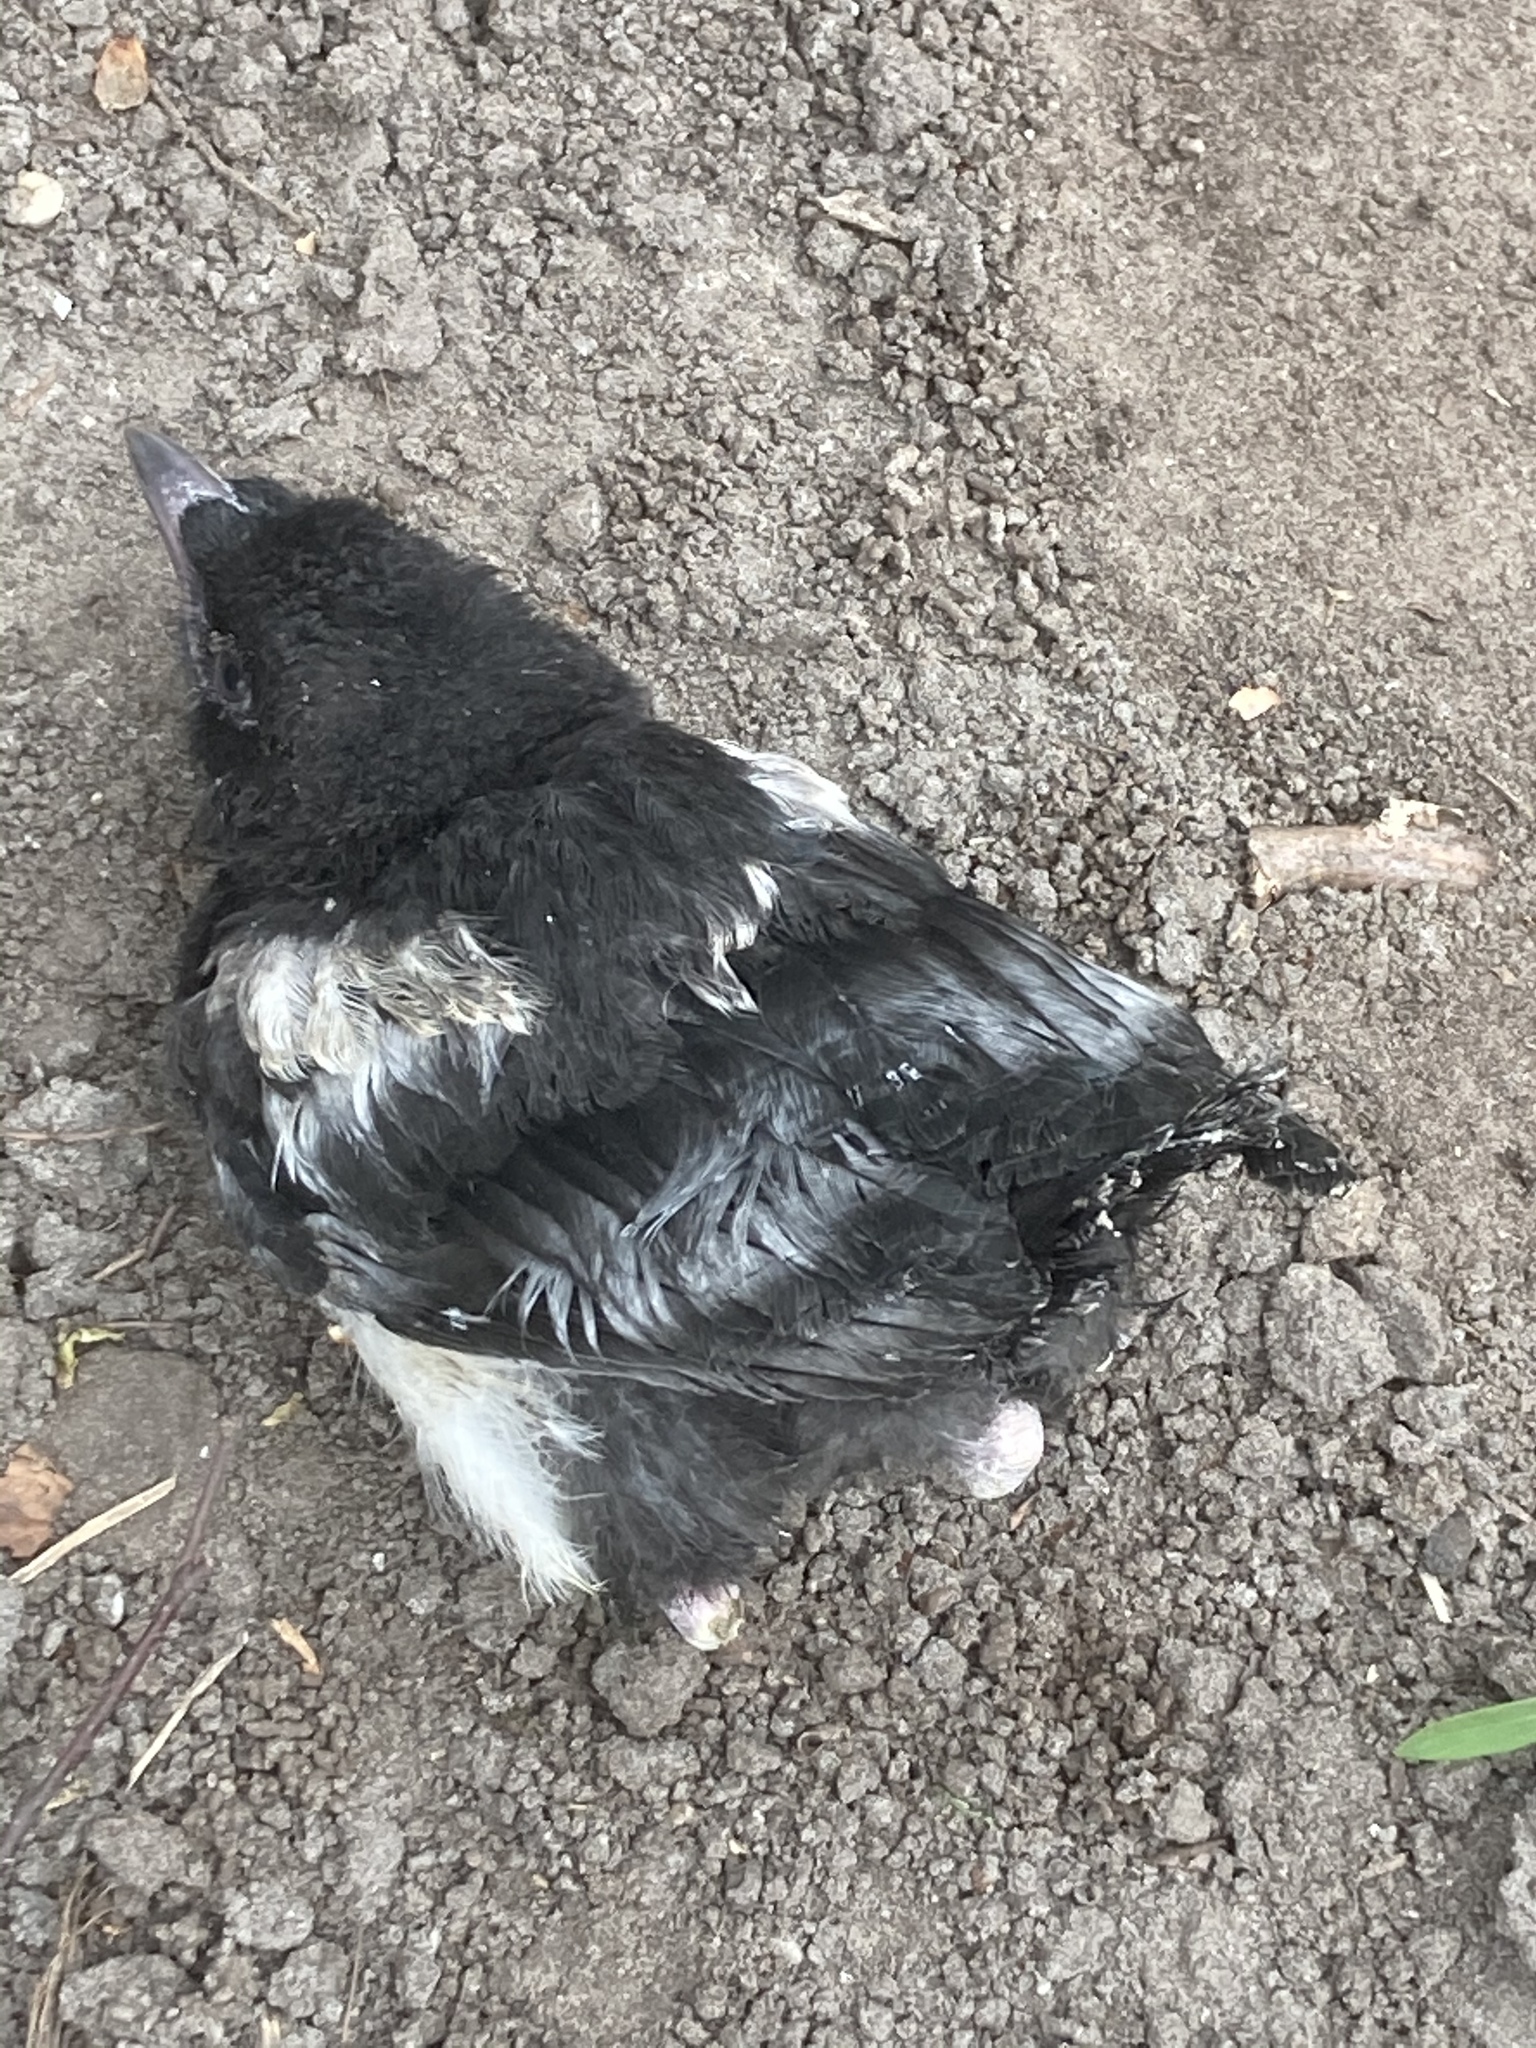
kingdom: Animalia
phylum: Chordata
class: Aves
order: Passeriformes
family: Corvidae
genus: Pica
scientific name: Pica pica
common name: Eurasian magpie
